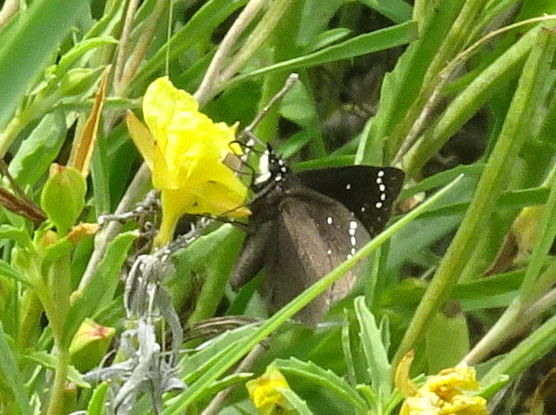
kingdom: Animalia
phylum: Arthropoda
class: Insecta
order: Lepidoptera
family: Hesperiidae
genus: Pholisora
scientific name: Pholisora catullus
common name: Common sootywing
